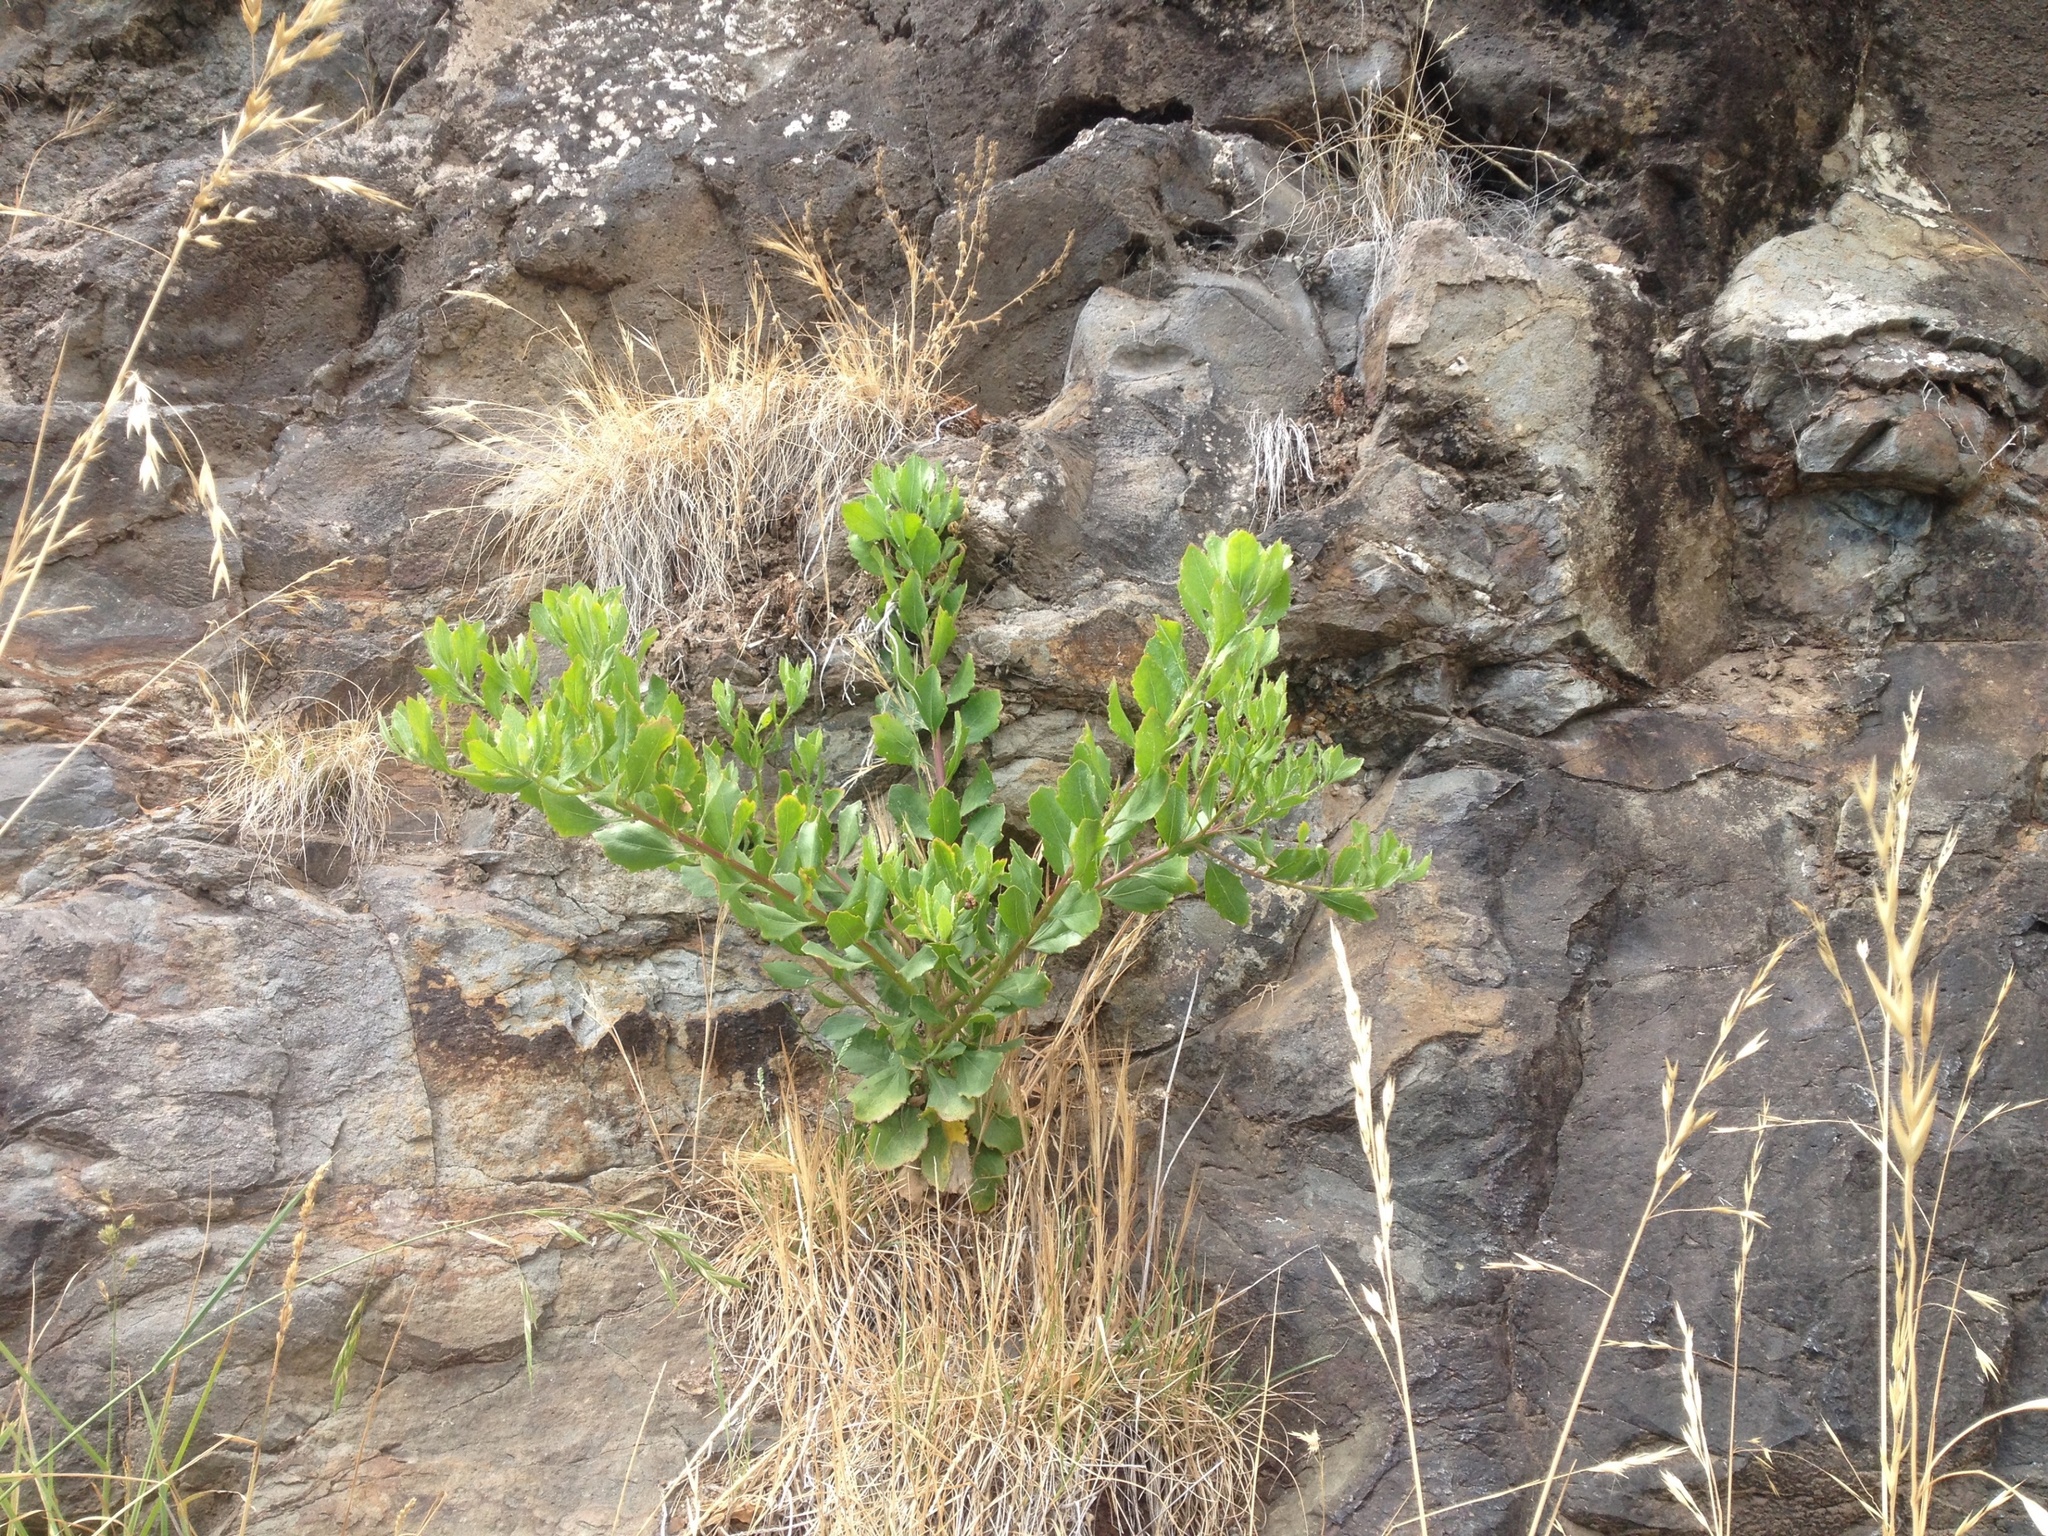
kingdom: Plantae
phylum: Tracheophyta
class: Magnoliopsida
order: Asterales
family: Asteraceae
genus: Osteospermum
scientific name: Osteospermum moniliferum
